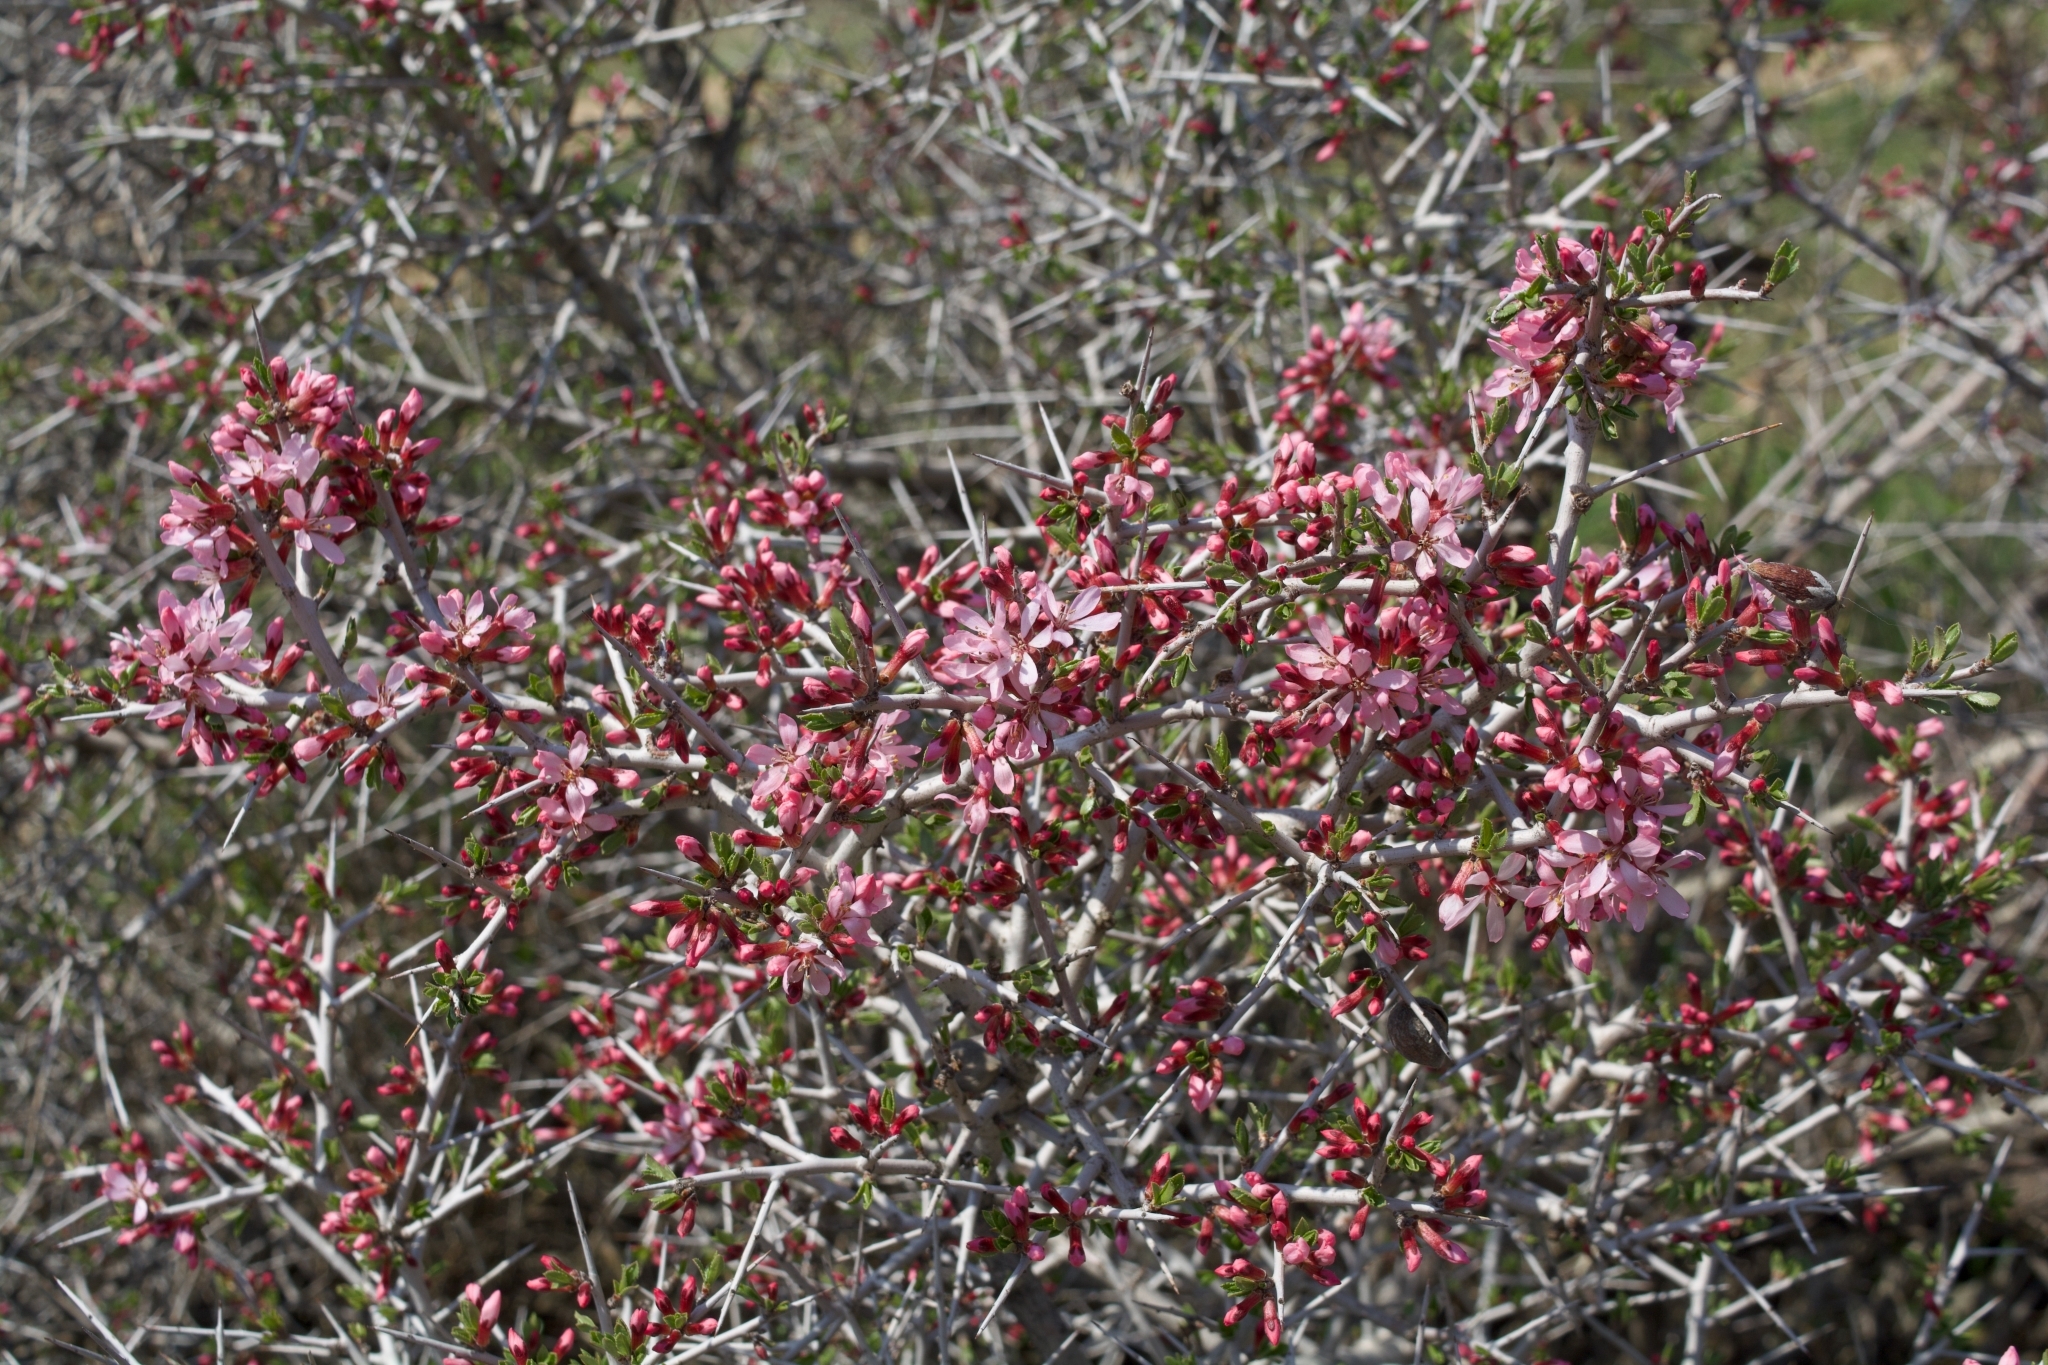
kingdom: Plantae
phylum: Tracheophyta
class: Magnoliopsida
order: Rosales
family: Rosaceae
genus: Prunus
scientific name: Prunus spinosissima
